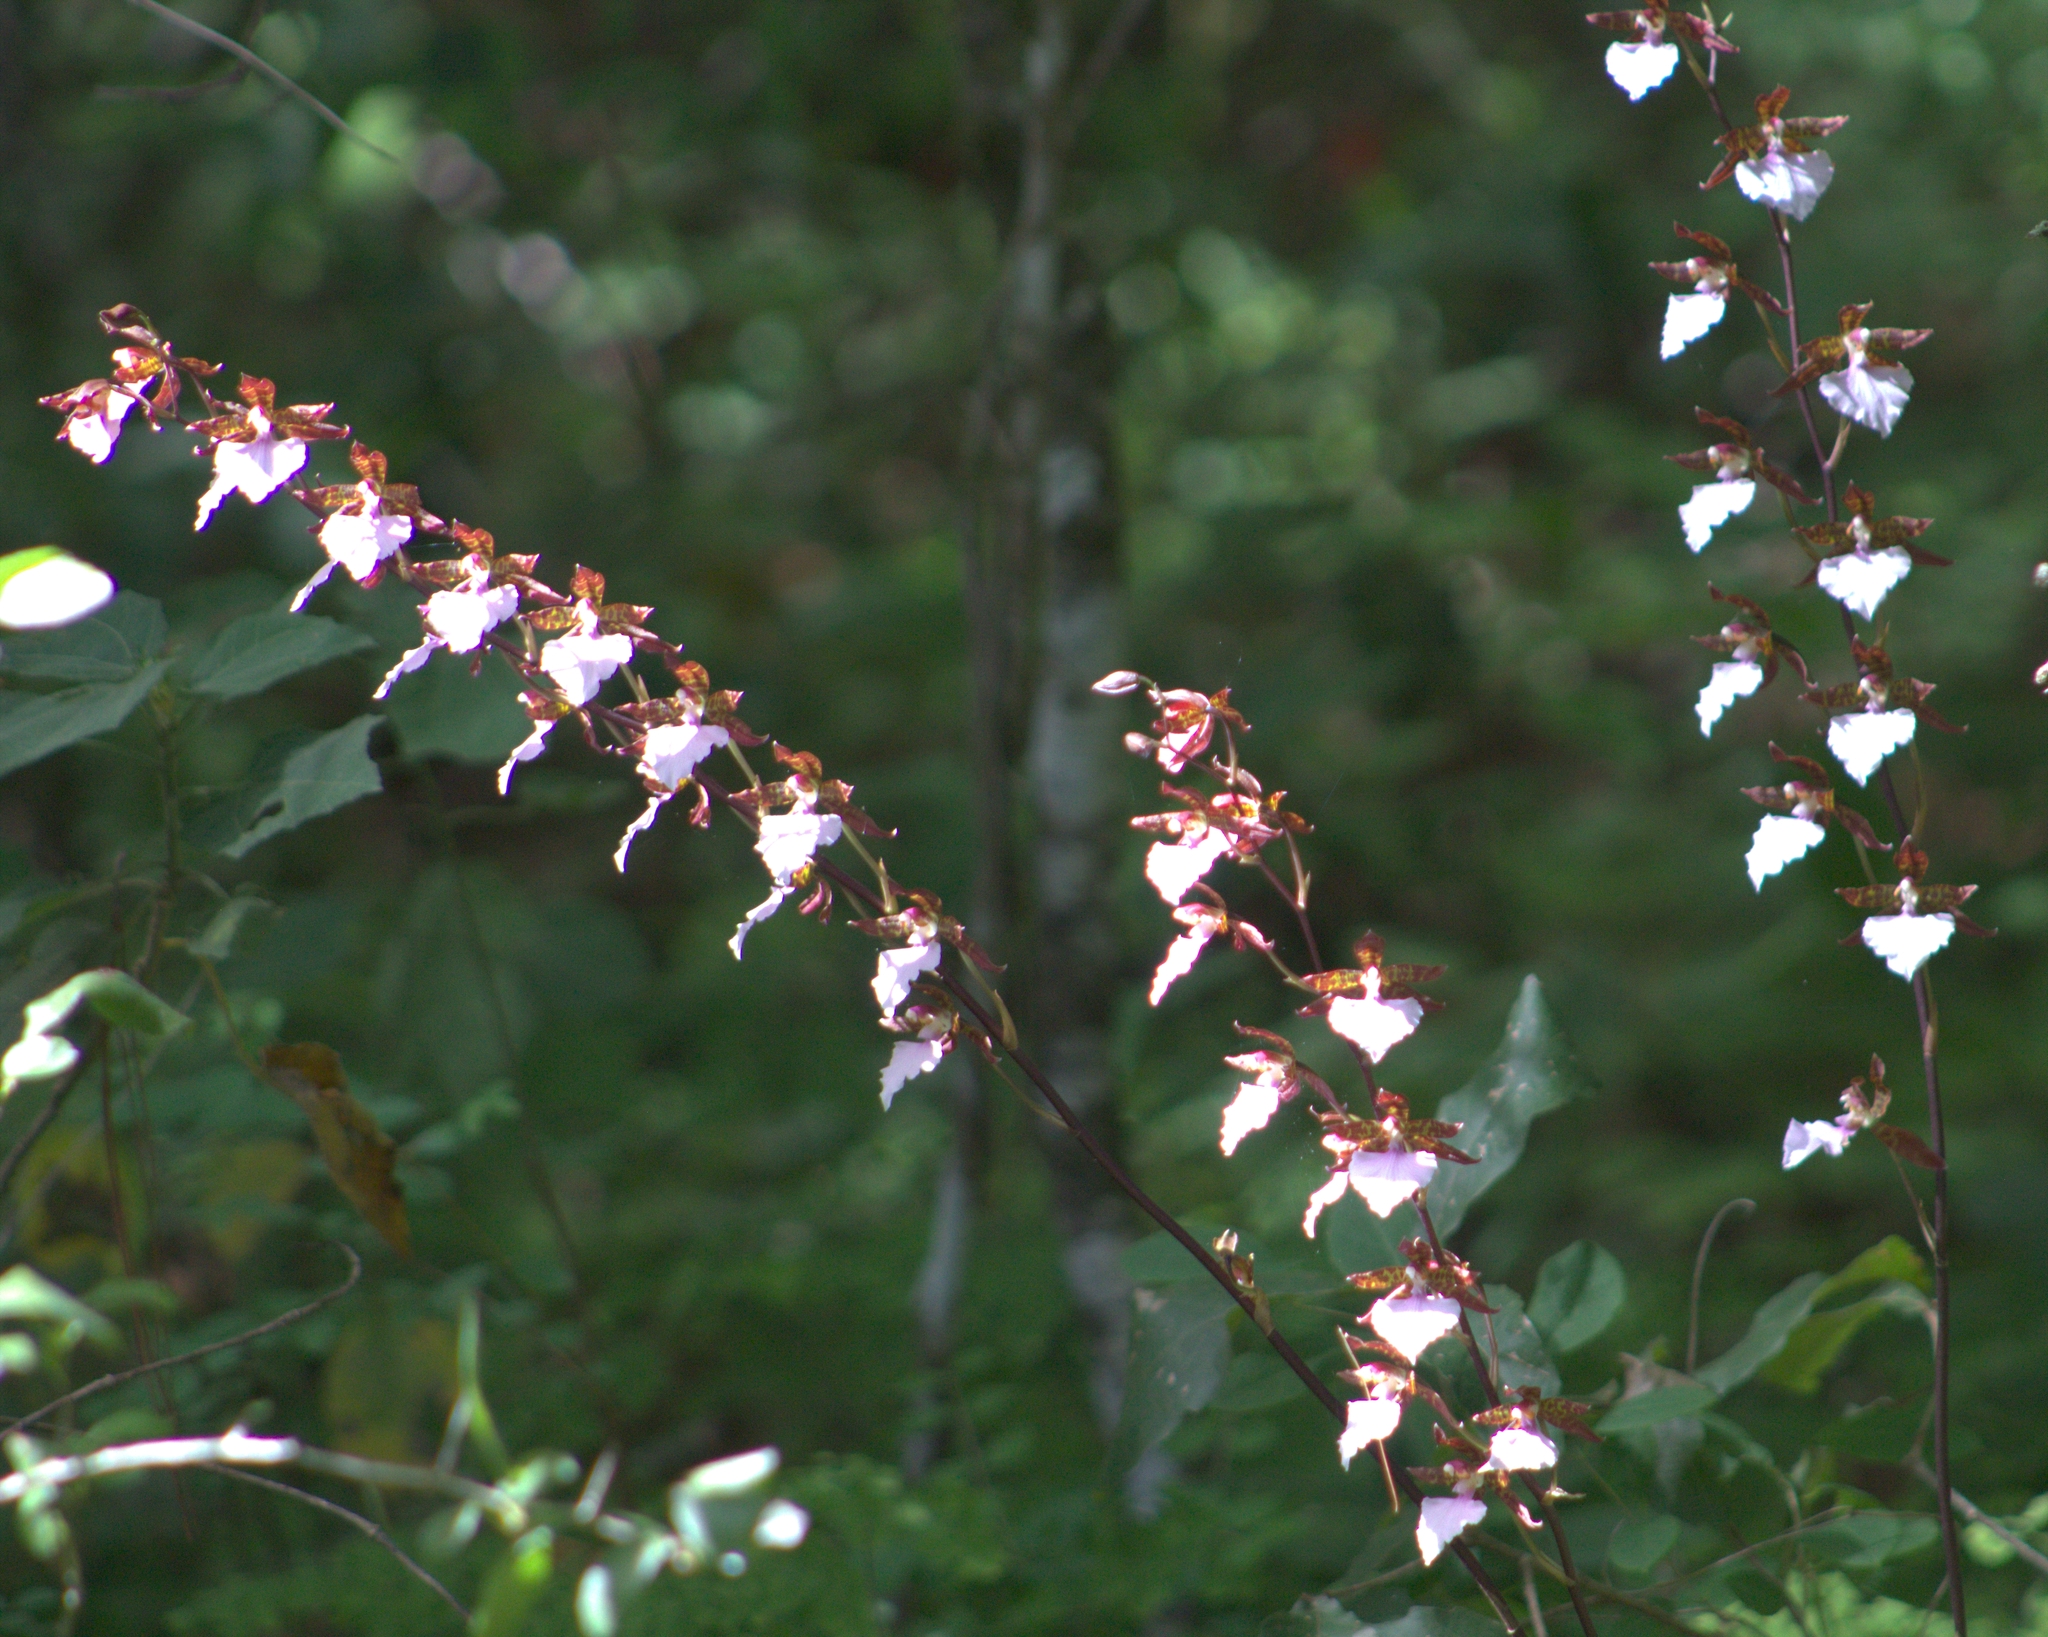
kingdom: Plantae
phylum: Tracheophyta
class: Liliopsida
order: Asparagales
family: Orchidaceae
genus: Rhynchostele
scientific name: Rhynchostele bictoniensis
